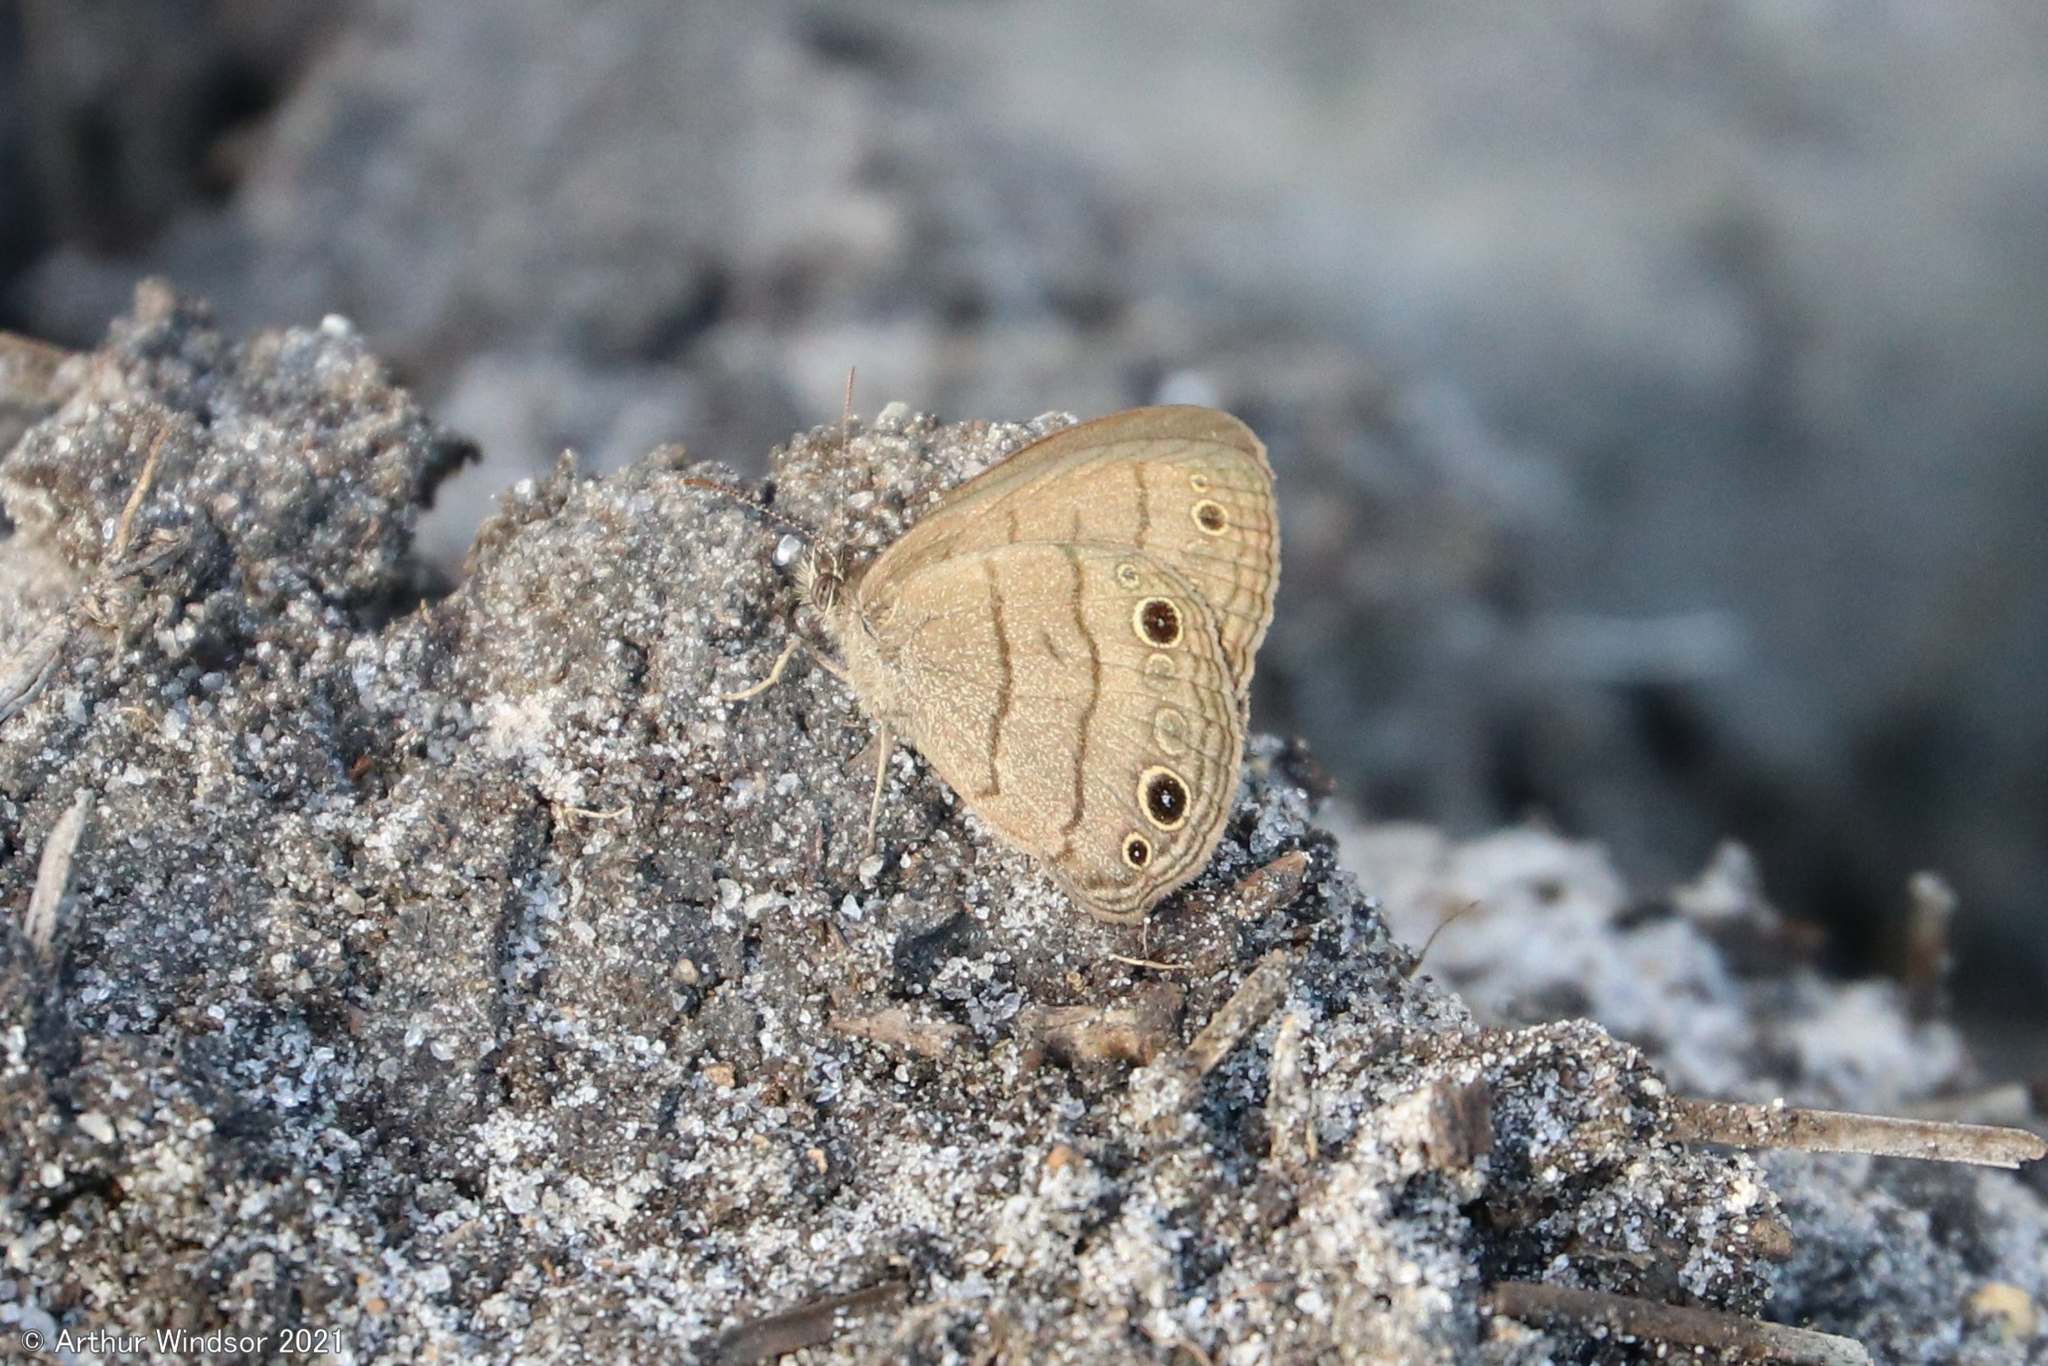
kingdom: Animalia
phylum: Arthropoda
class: Insecta
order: Lepidoptera
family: Nymphalidae
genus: Hermeuptychia
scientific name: Hermeuptychia hermes
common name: Hermes satyr
